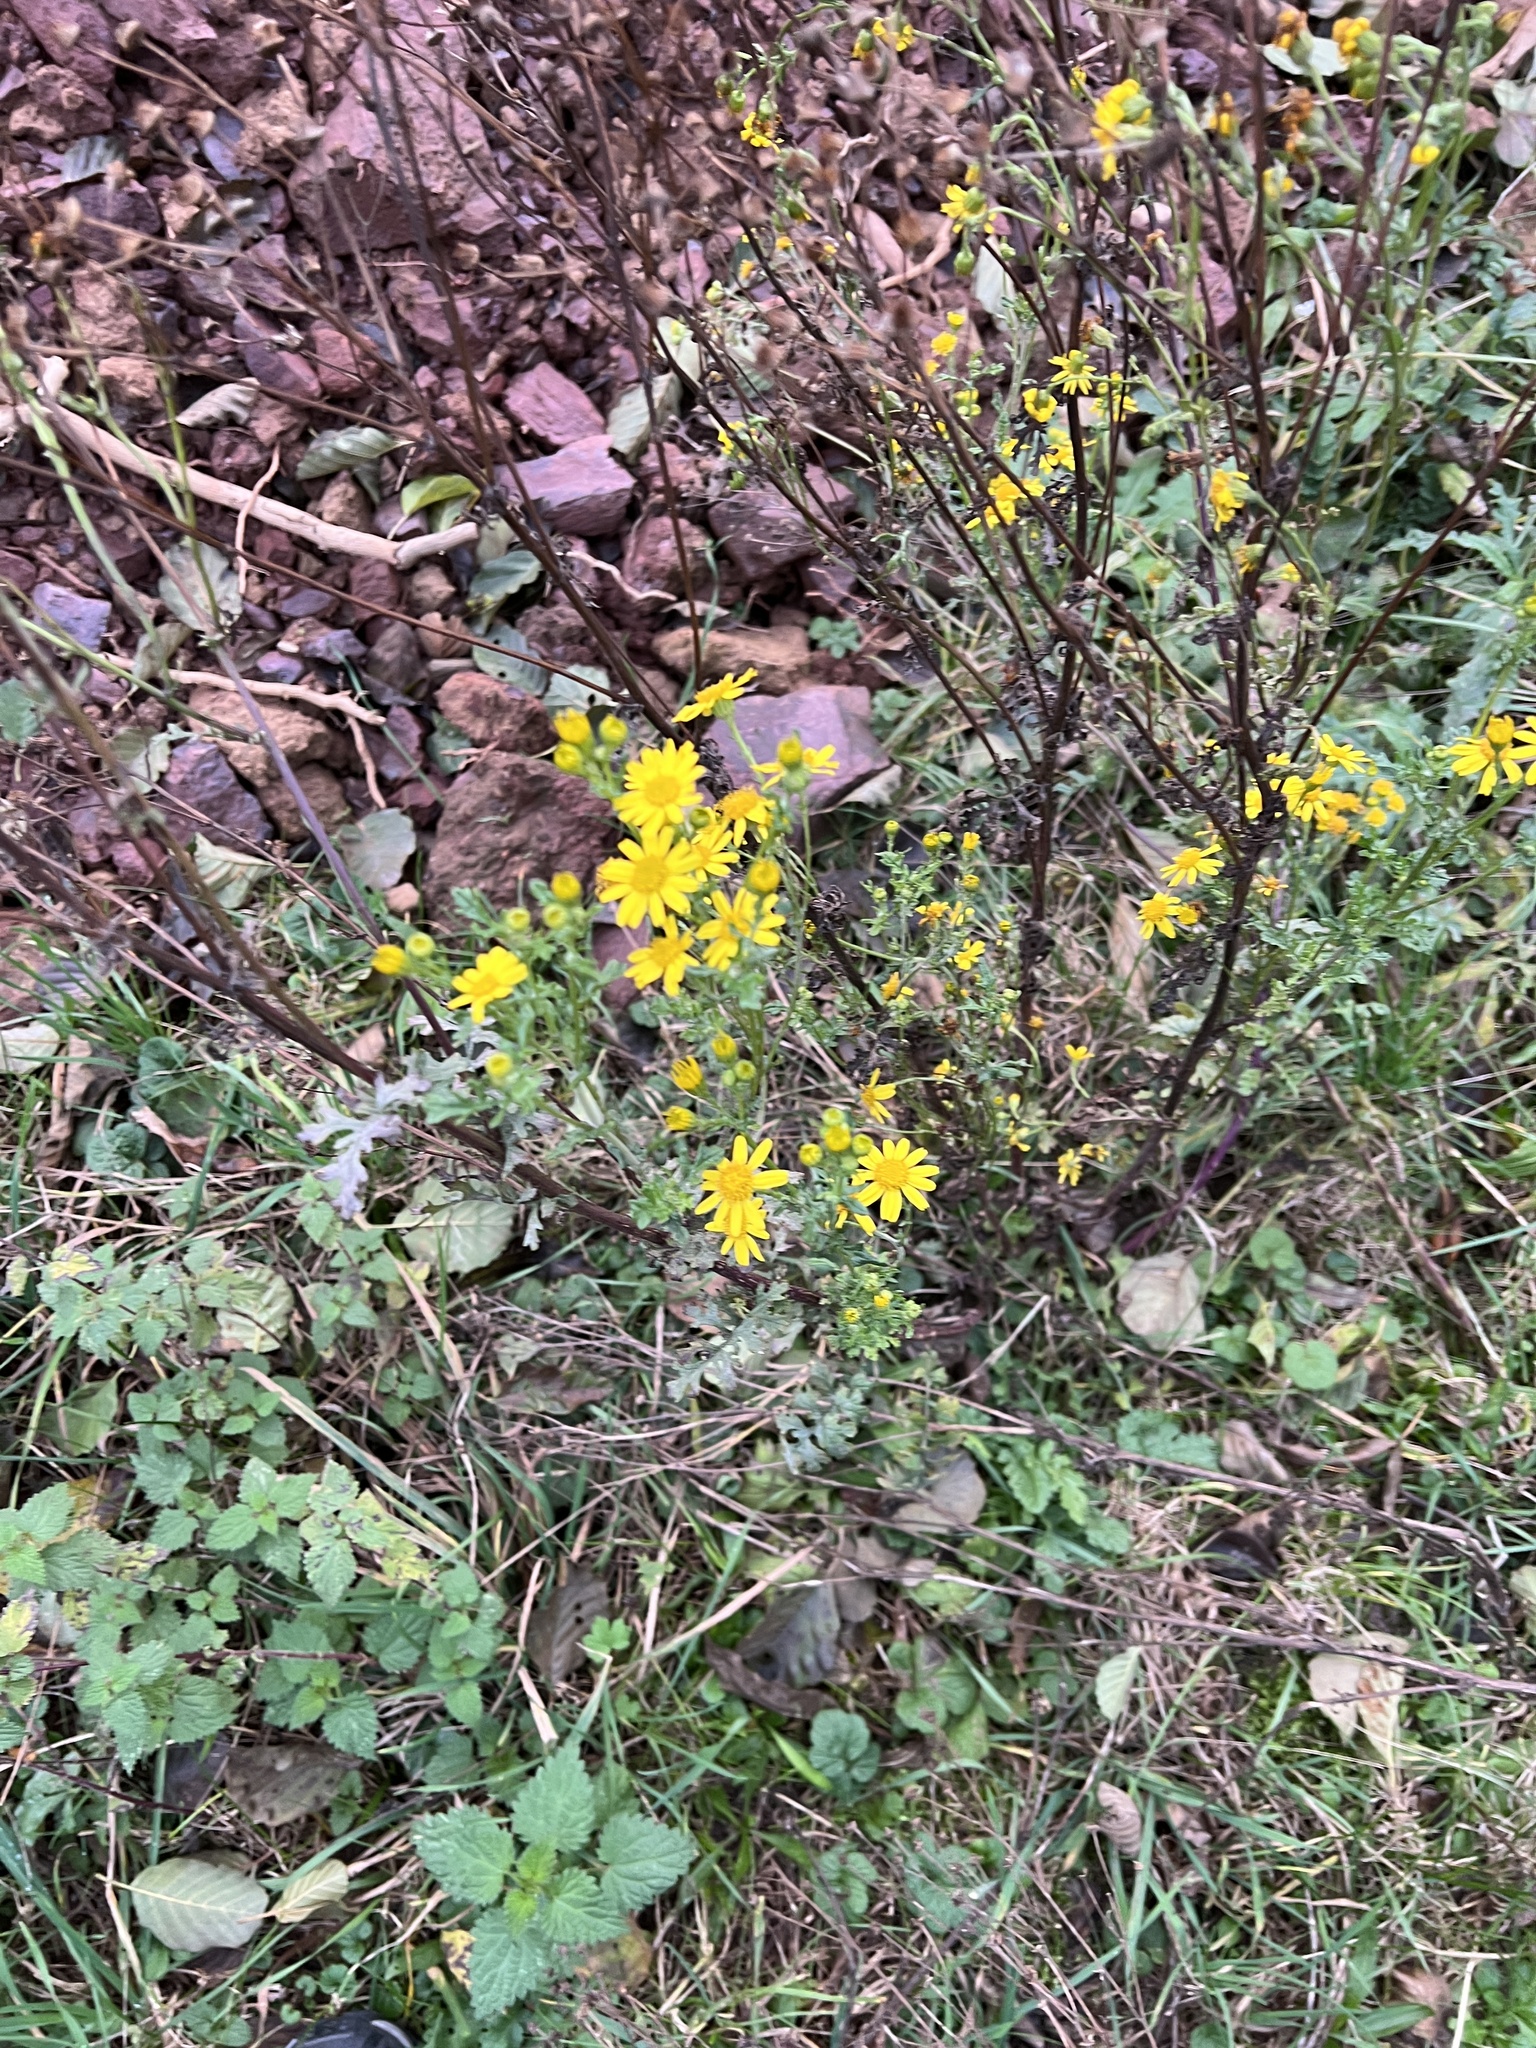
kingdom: Plantae
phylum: Tracheophyta
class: Magnoliopsida
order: Asterales
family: Asteraceae
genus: Jacobaea
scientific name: Jacobaea vulgaris
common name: Stinking willie
